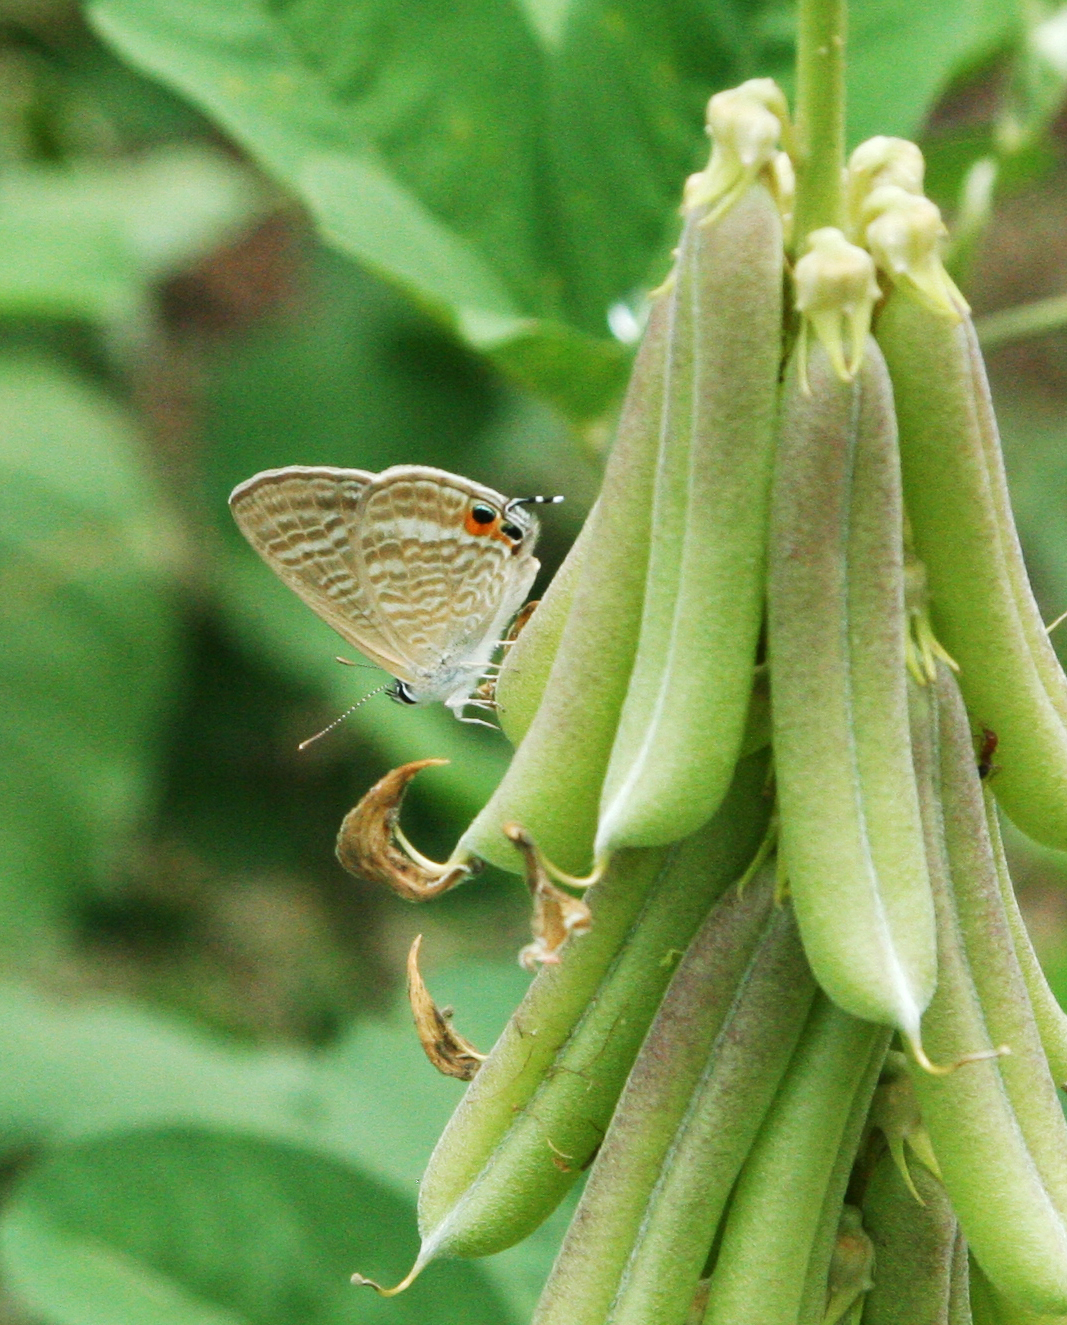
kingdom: Animalia
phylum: Arthropoda
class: Insecta
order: Lepidoptera
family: Lycaenidae
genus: Lampides
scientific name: Lampides boeticus
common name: Long-tailed blue
